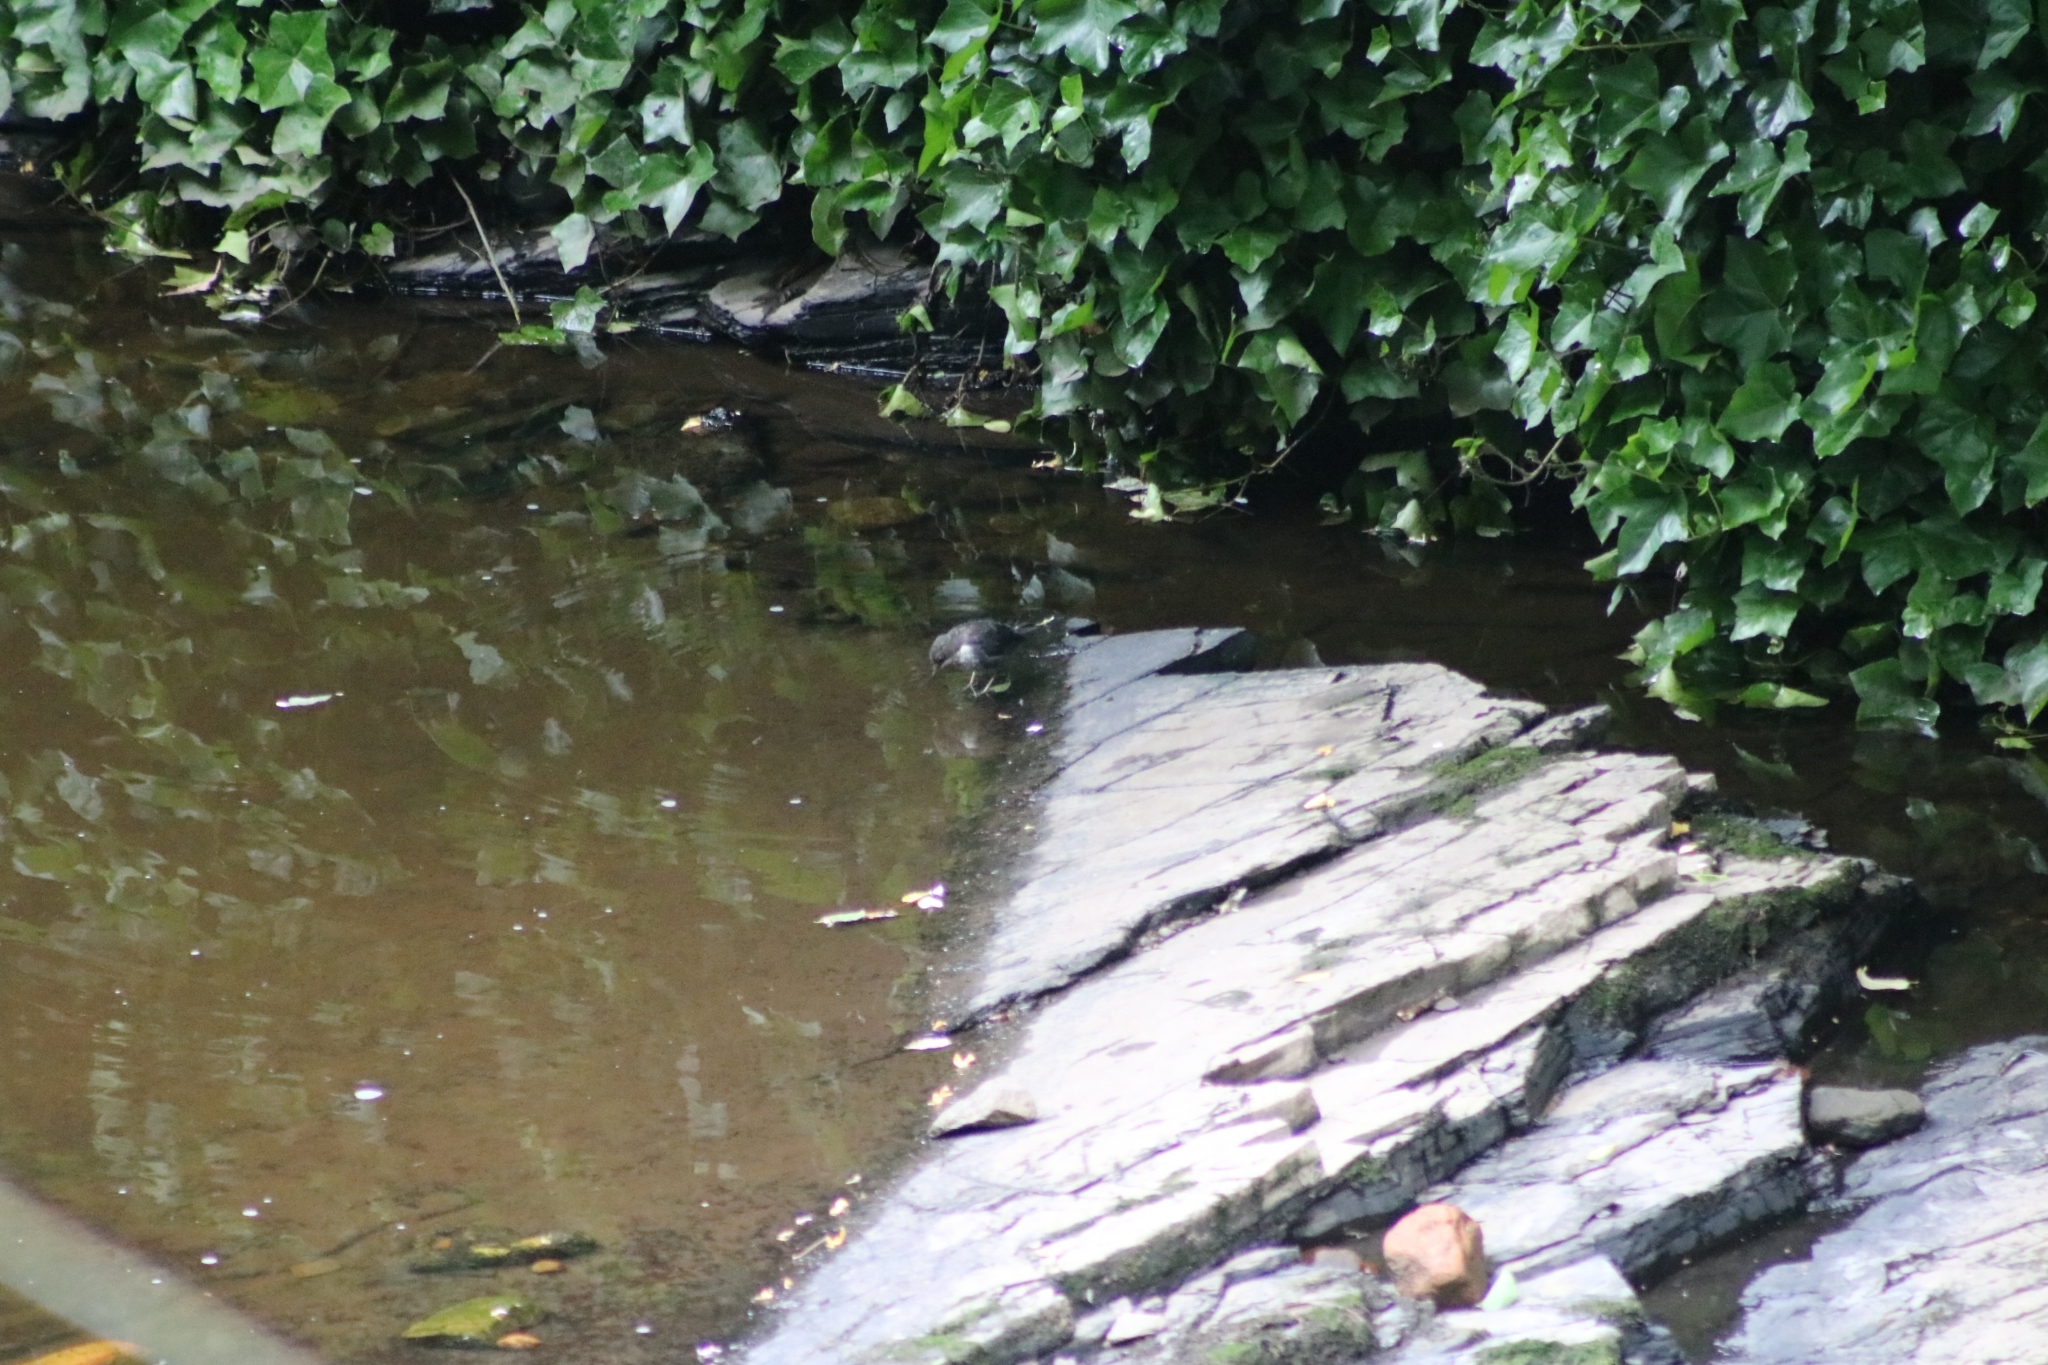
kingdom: Animalia
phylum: Chordata
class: Aves
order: Passeriformes
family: Cinclidae
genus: Cinclus
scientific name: Cinclus cinclus
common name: White-throated dipper
